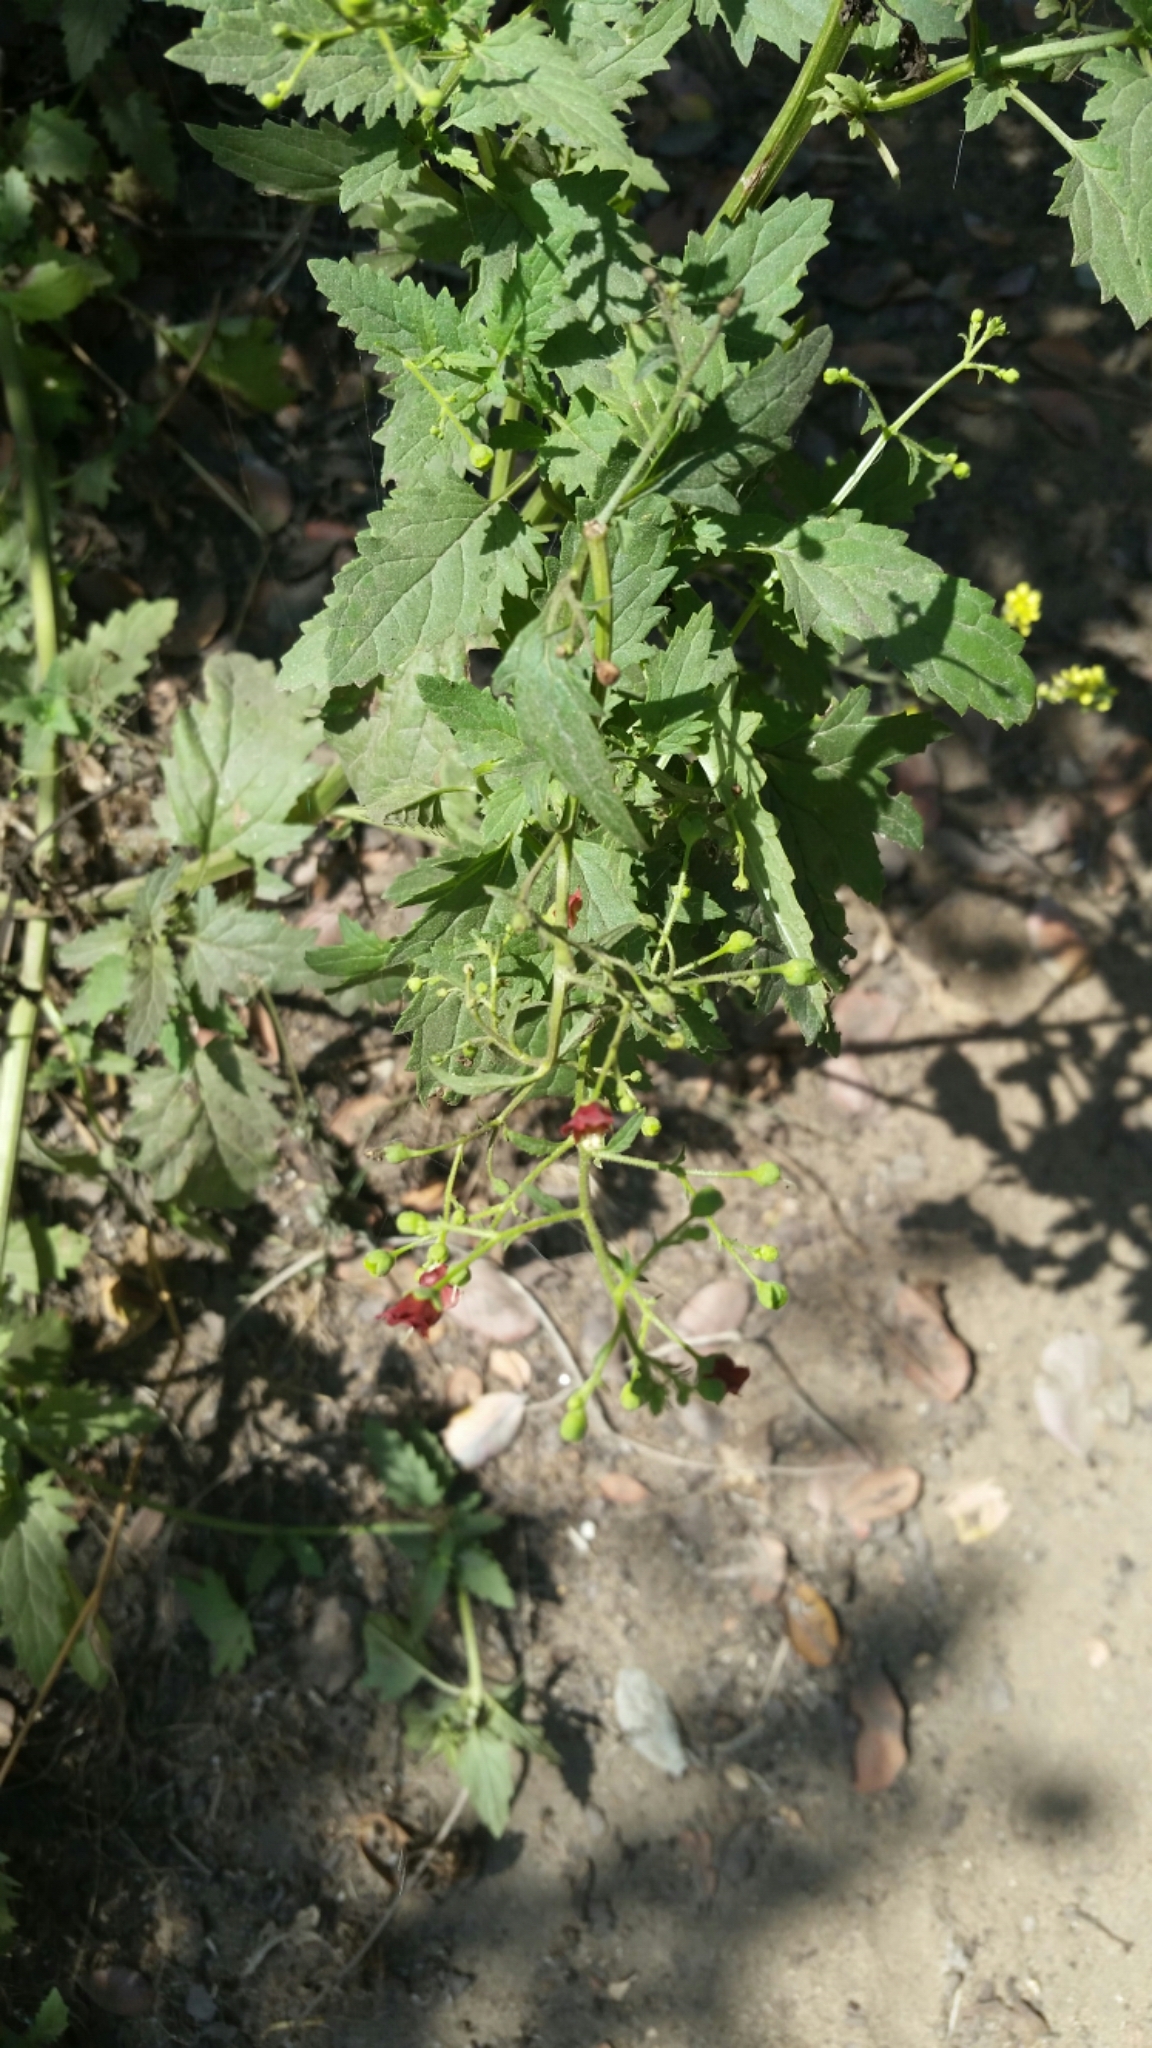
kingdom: Plantae
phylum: Tracheophyta
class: Magnoliopsida
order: Lamiales
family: Scrophulariaceae
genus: Scrophularia
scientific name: Scrophularia californica
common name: California figwort
